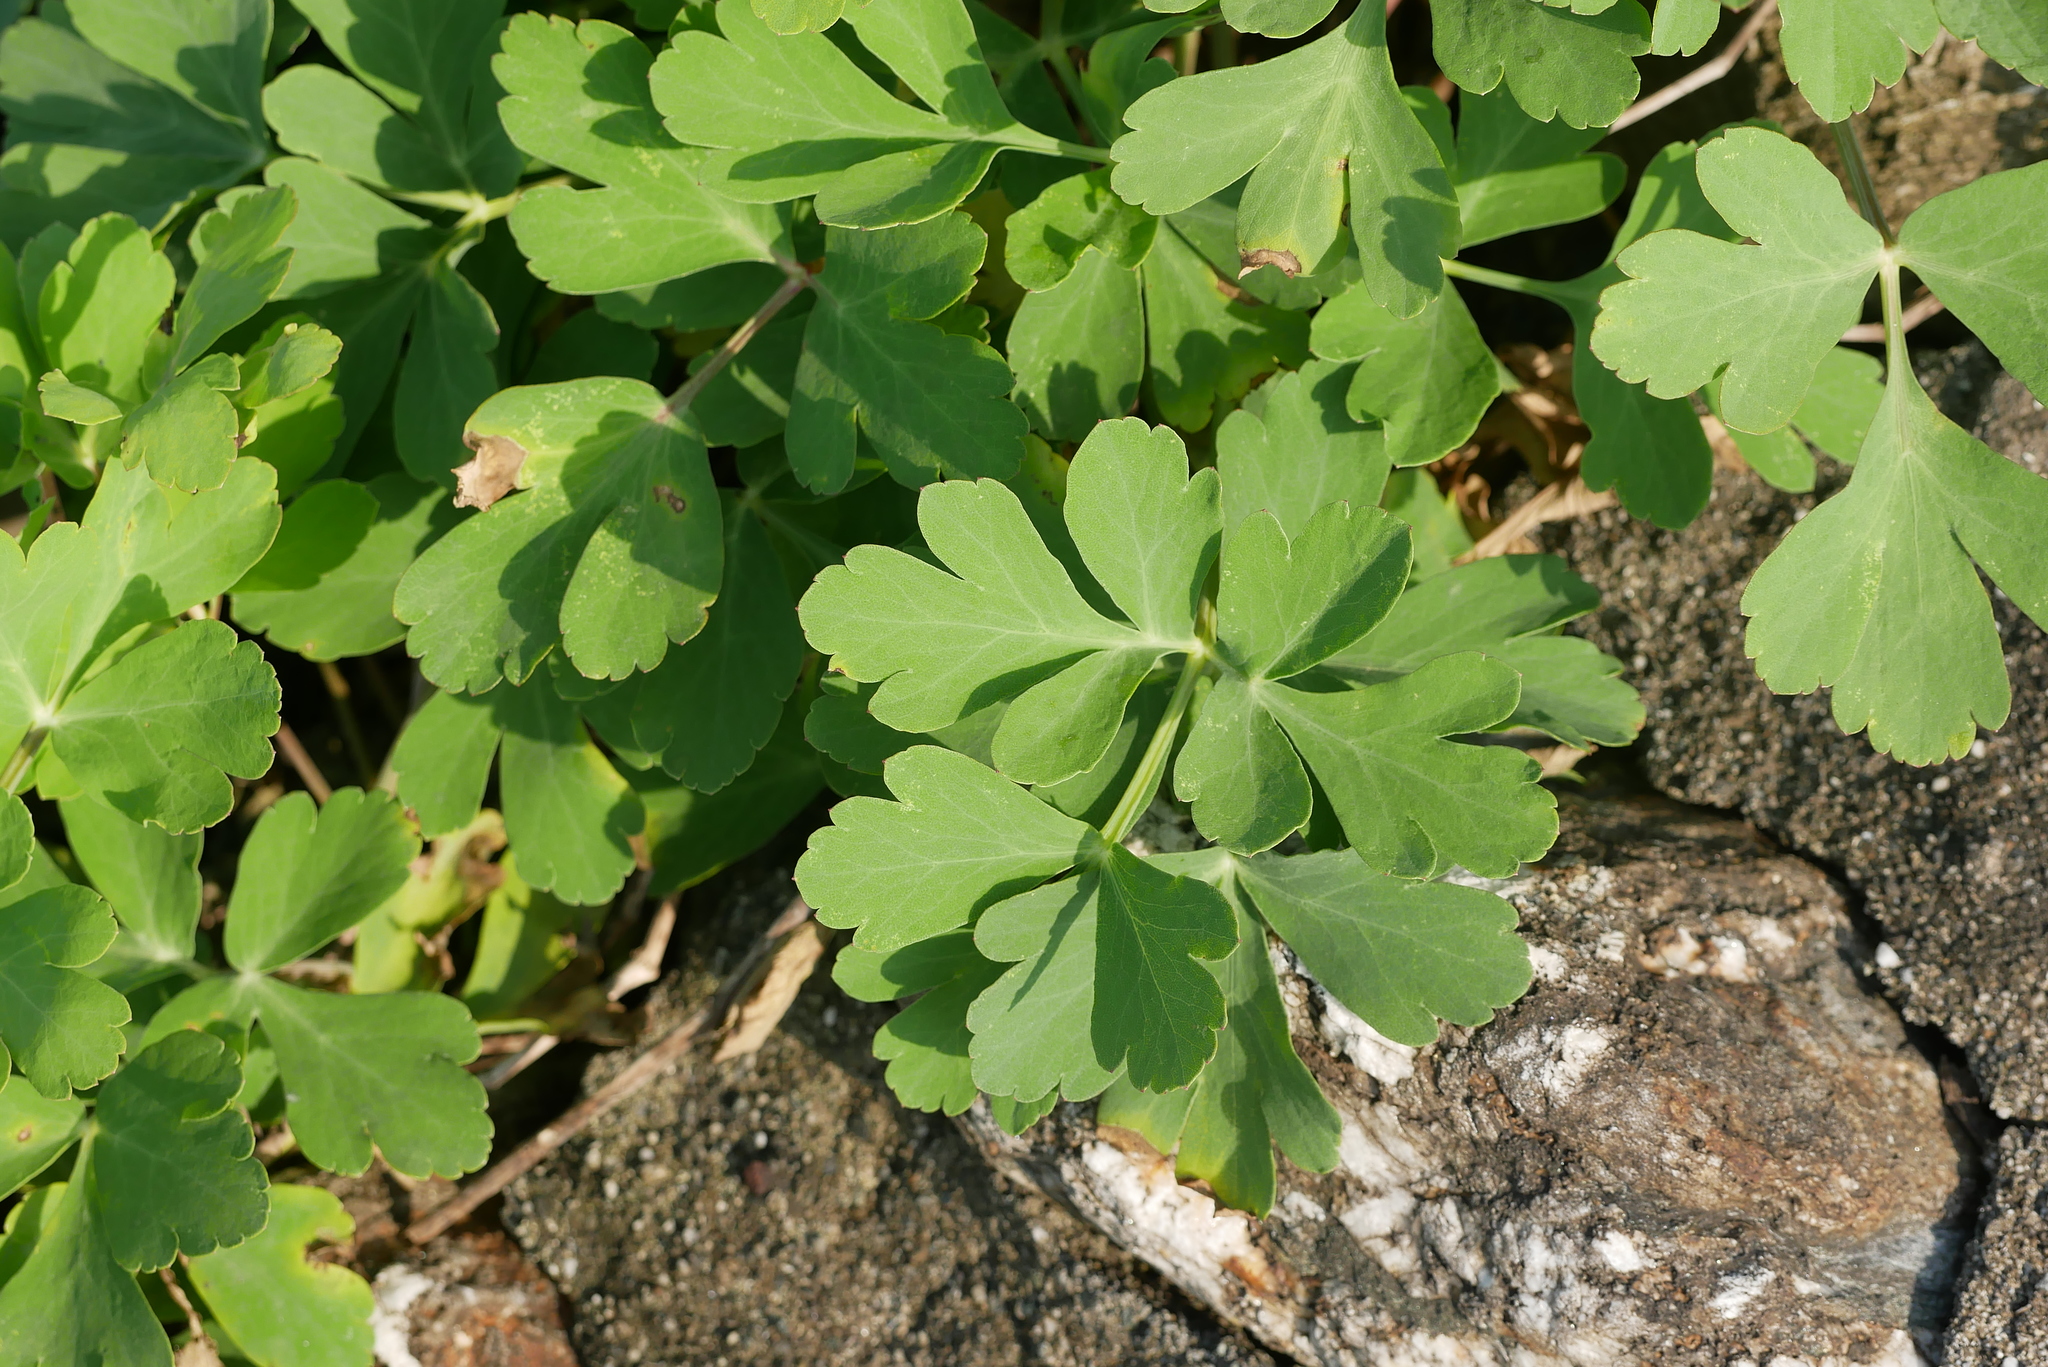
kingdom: Plantae
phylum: Tracheophyta
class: Magnoliopsida
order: Apiales
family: Apiaceae
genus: Peucedanum
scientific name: Peucedanum japonicum
